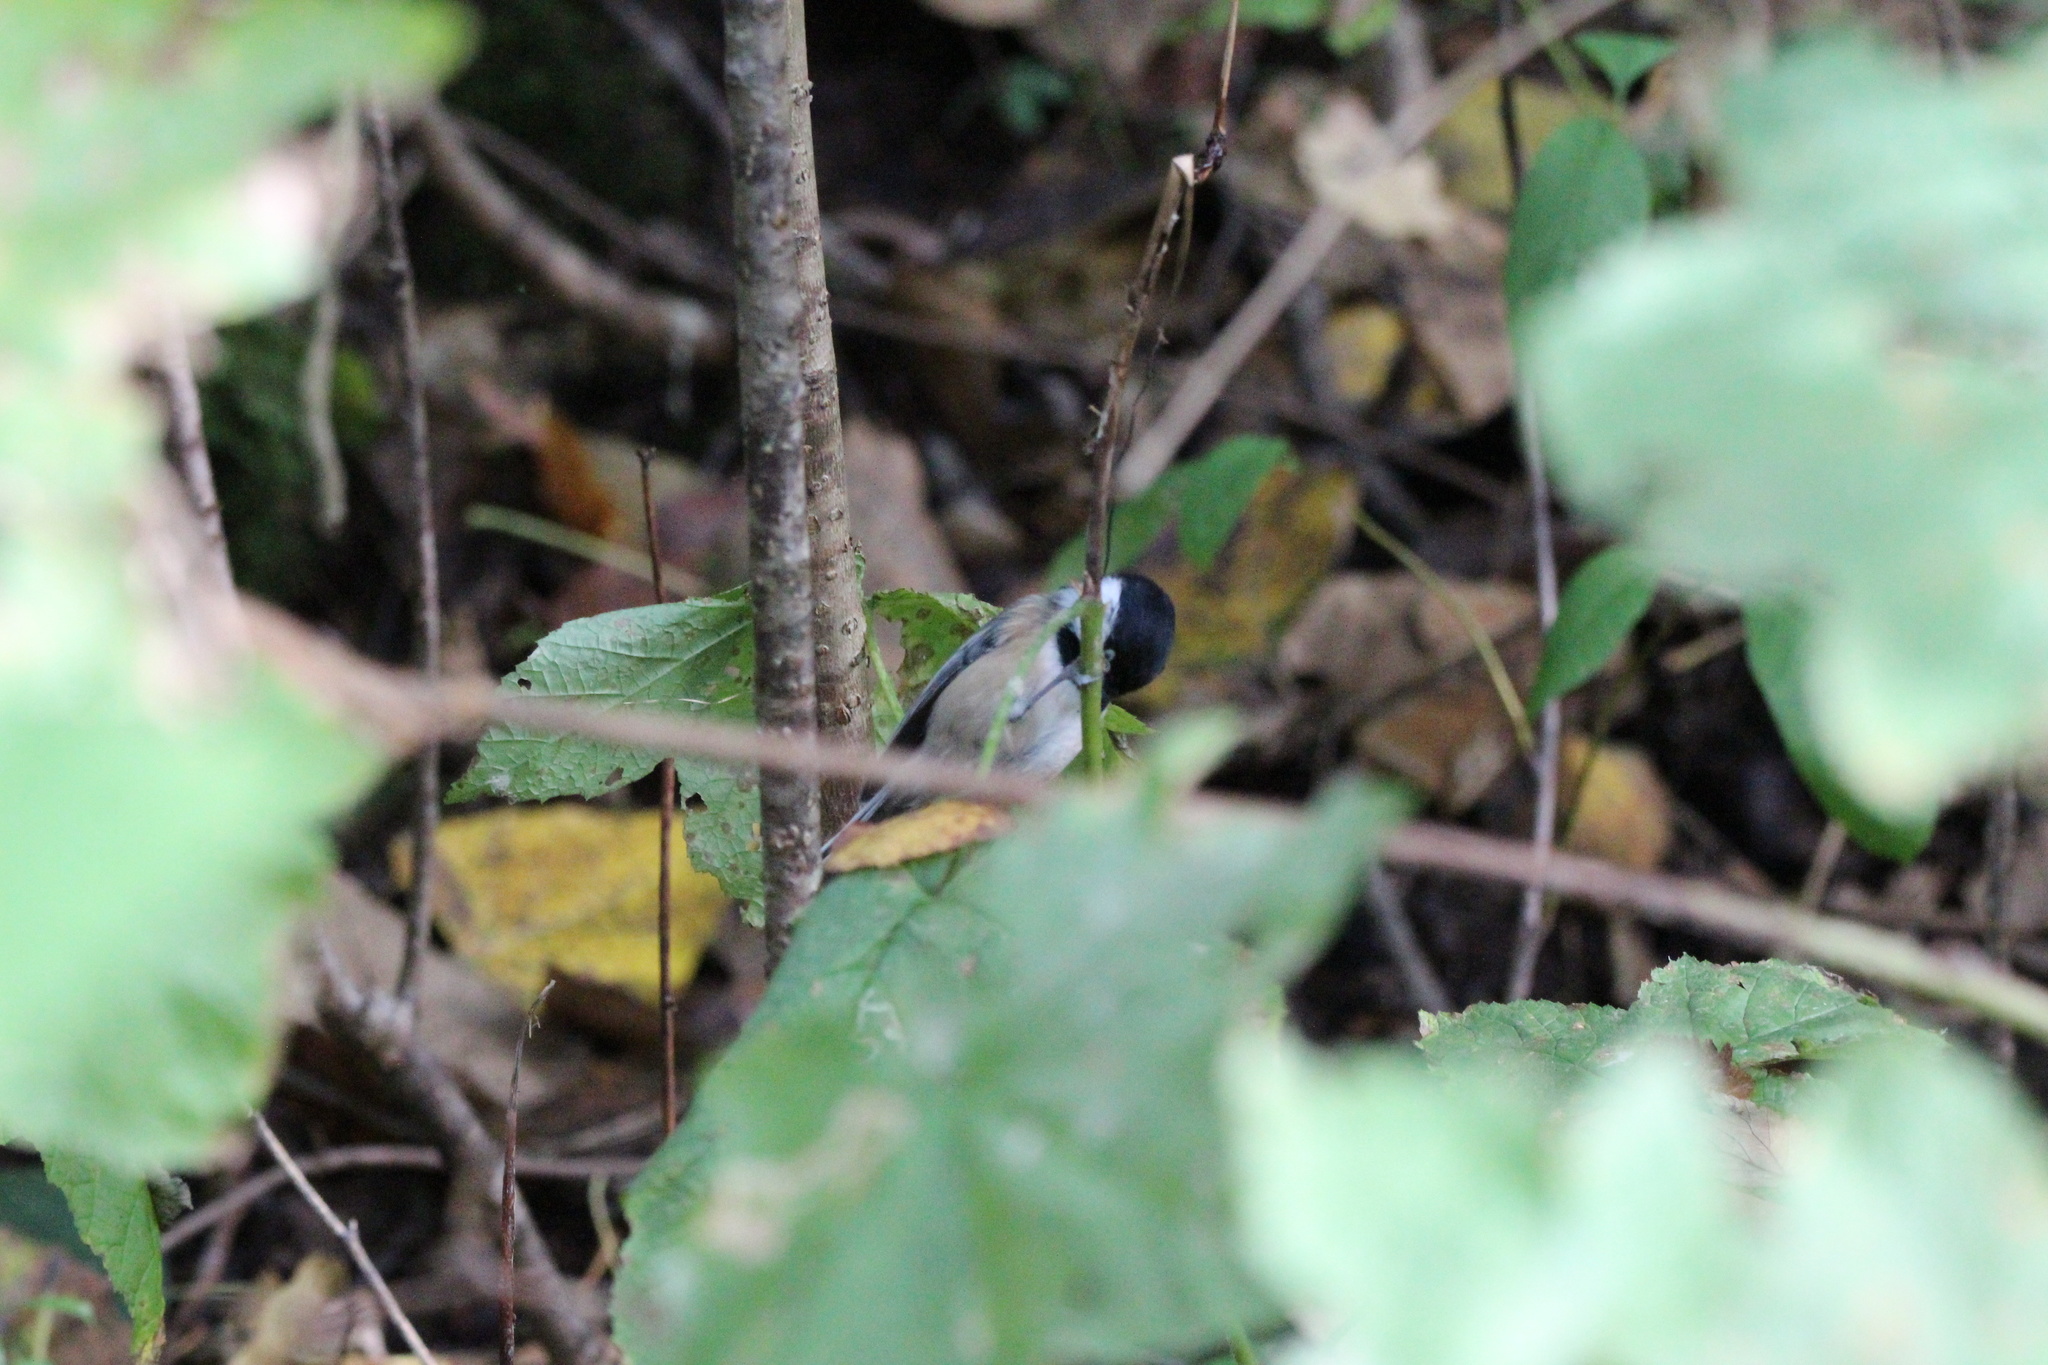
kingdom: Animalia
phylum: Chordata
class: Aves
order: Passeriformes
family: Paridae
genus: Poecile
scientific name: Poecile atricapillus
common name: Black-capped chickadee
